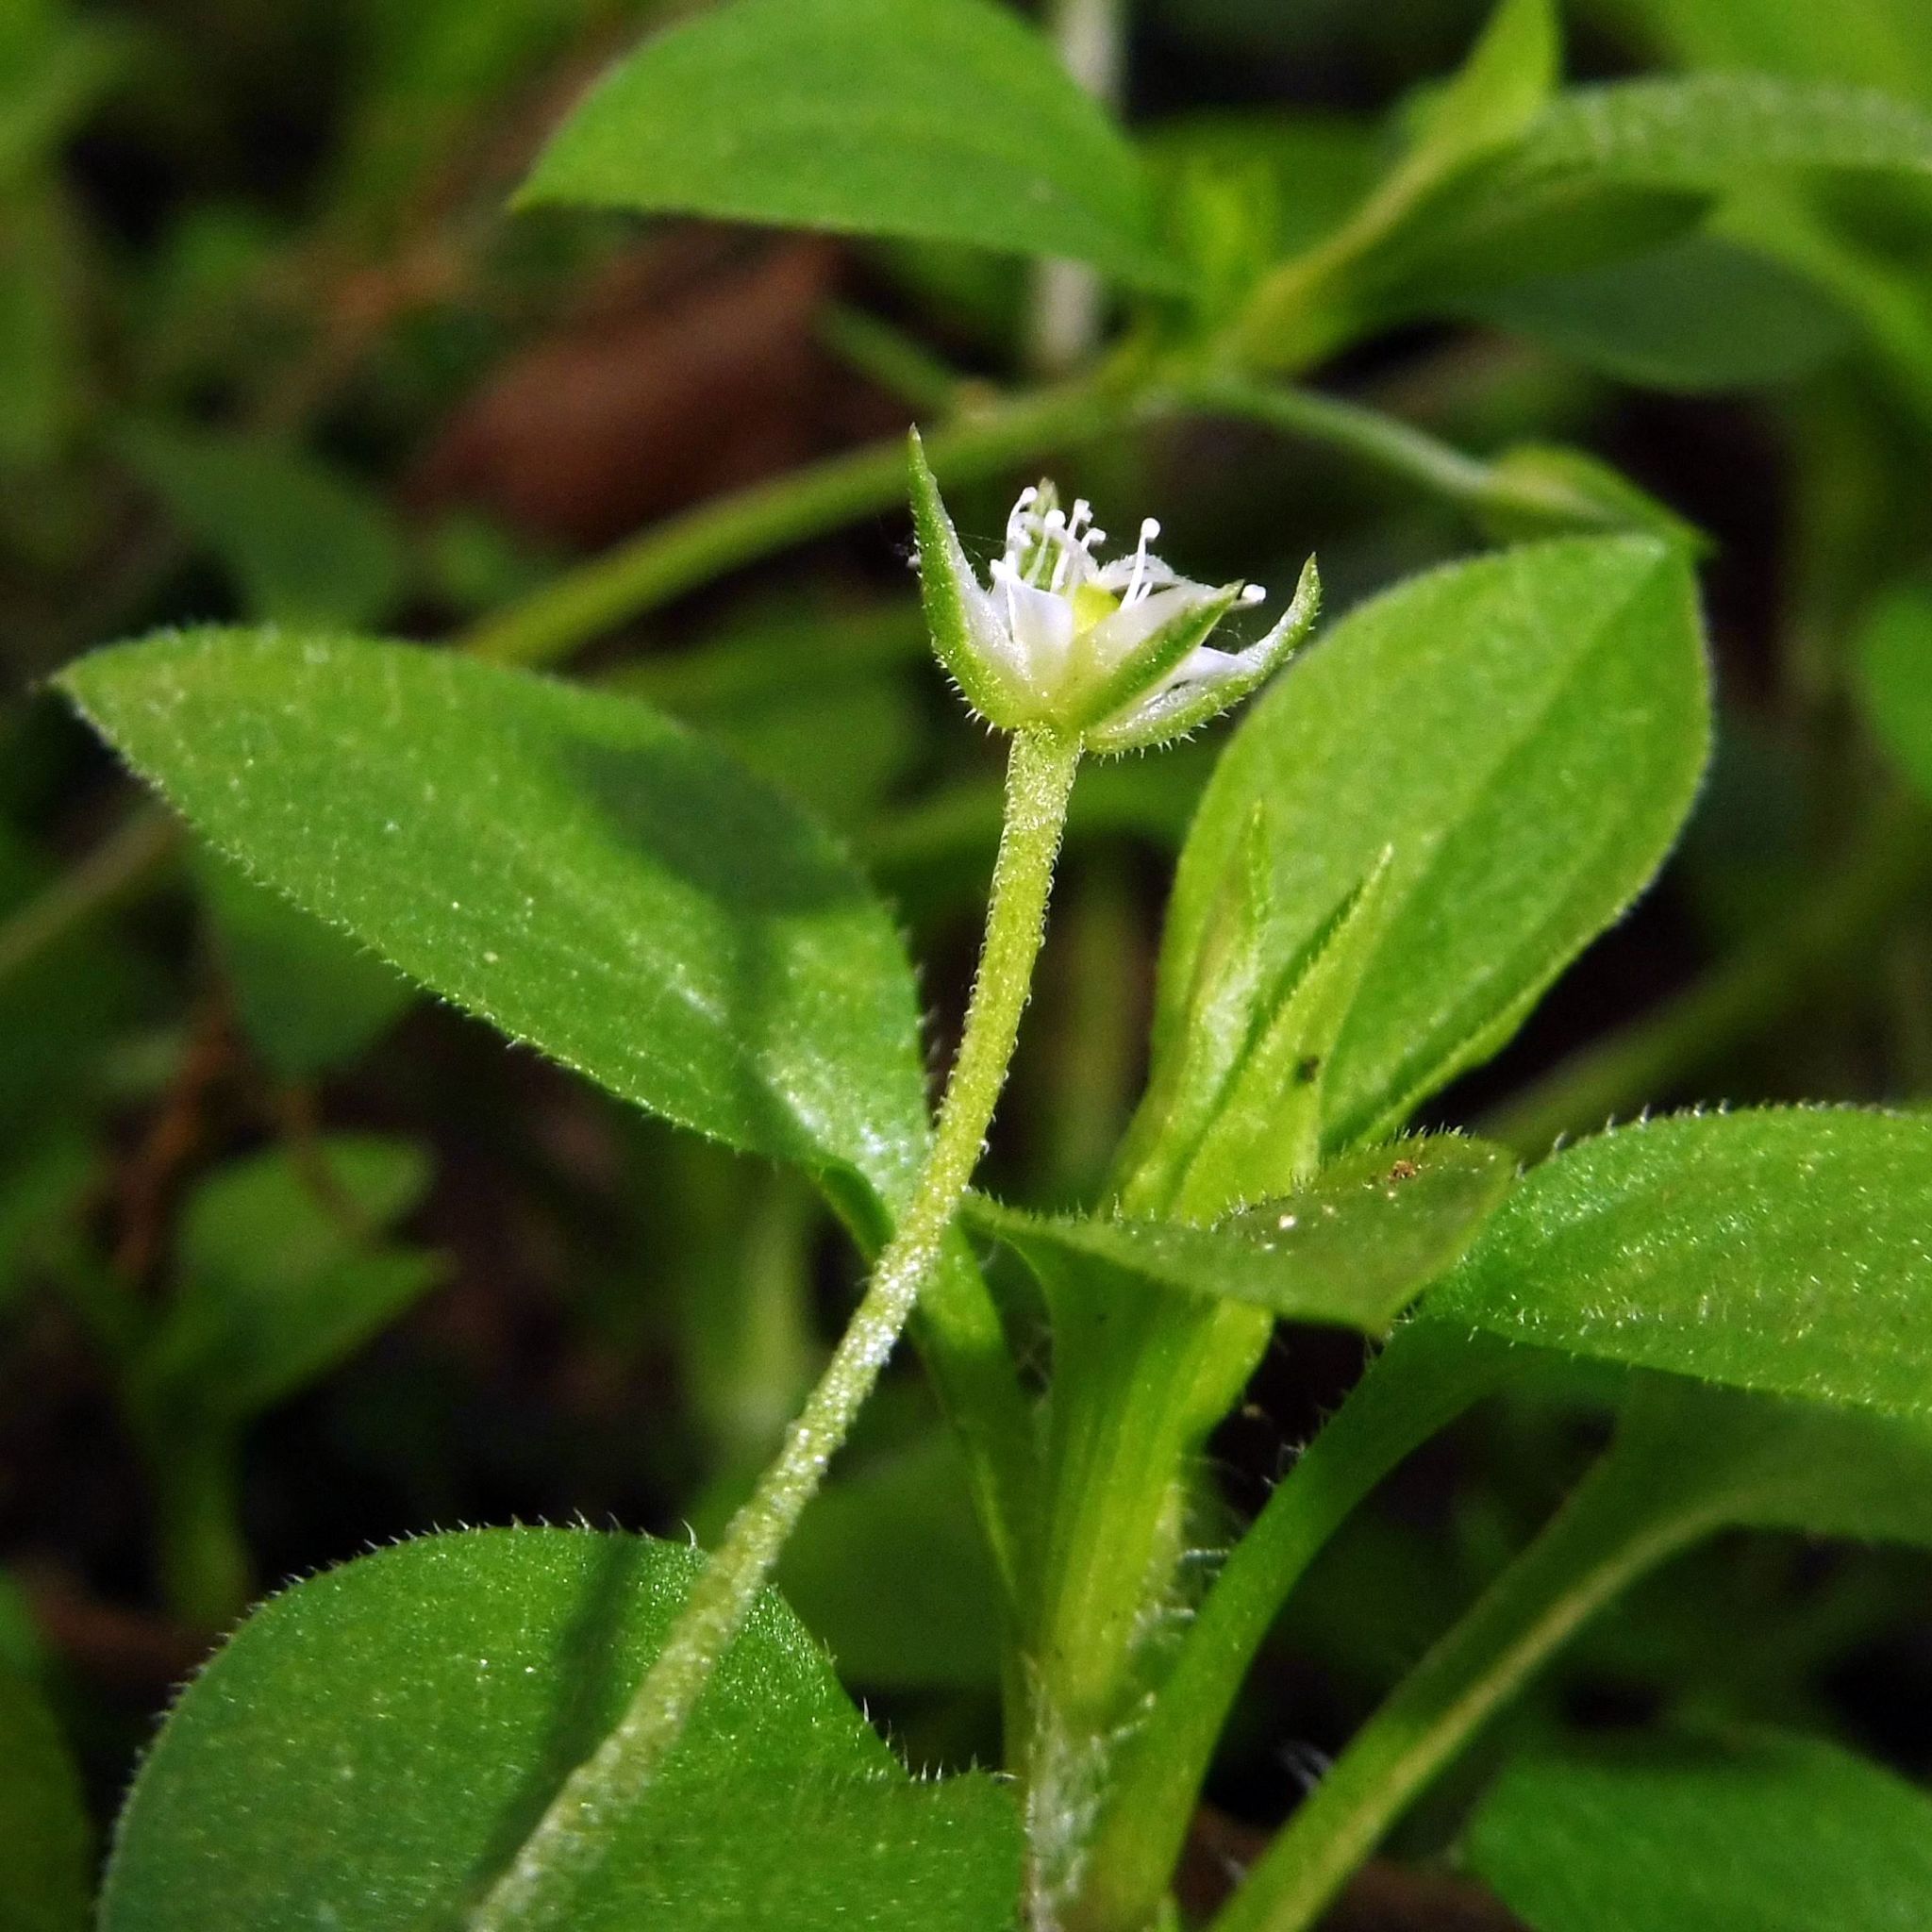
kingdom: Plantae
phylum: Tracheophyta
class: Magnoliopsida
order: Caryophyllales
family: Caryophyllaceae
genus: Moehringia
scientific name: Moehringia trinervia
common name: Three-nerved sandwort
